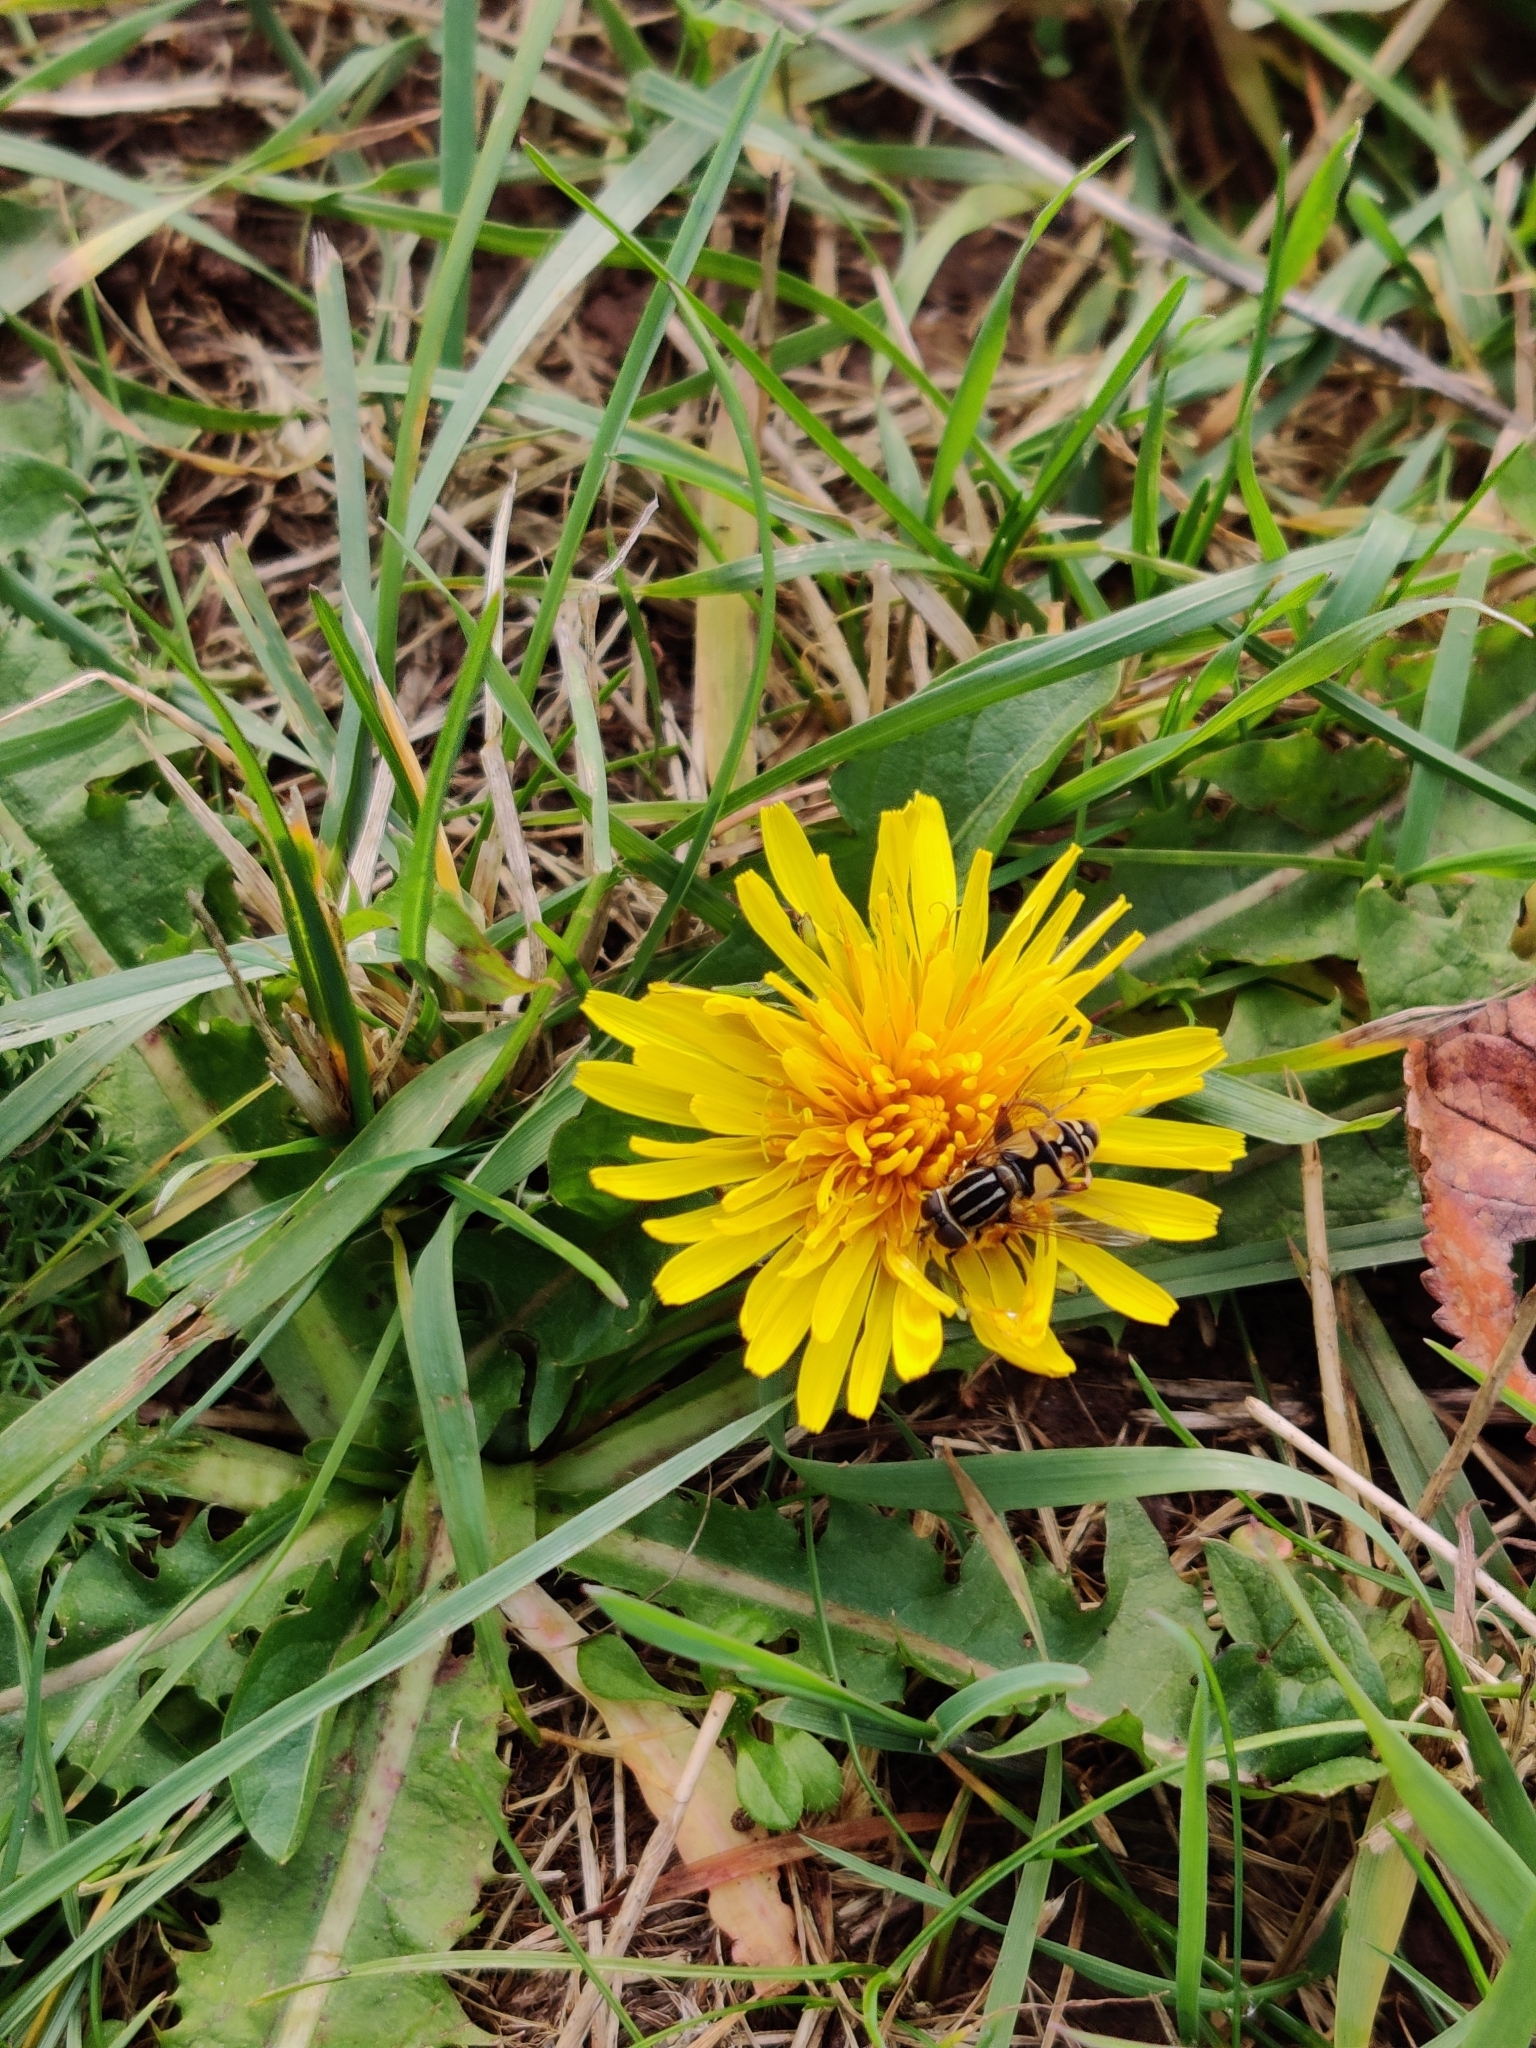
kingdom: Animalia
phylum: Arthropoda
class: Insecta
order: Diptera
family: Syrphidae
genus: Helophilus
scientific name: Helophilus pendulus
